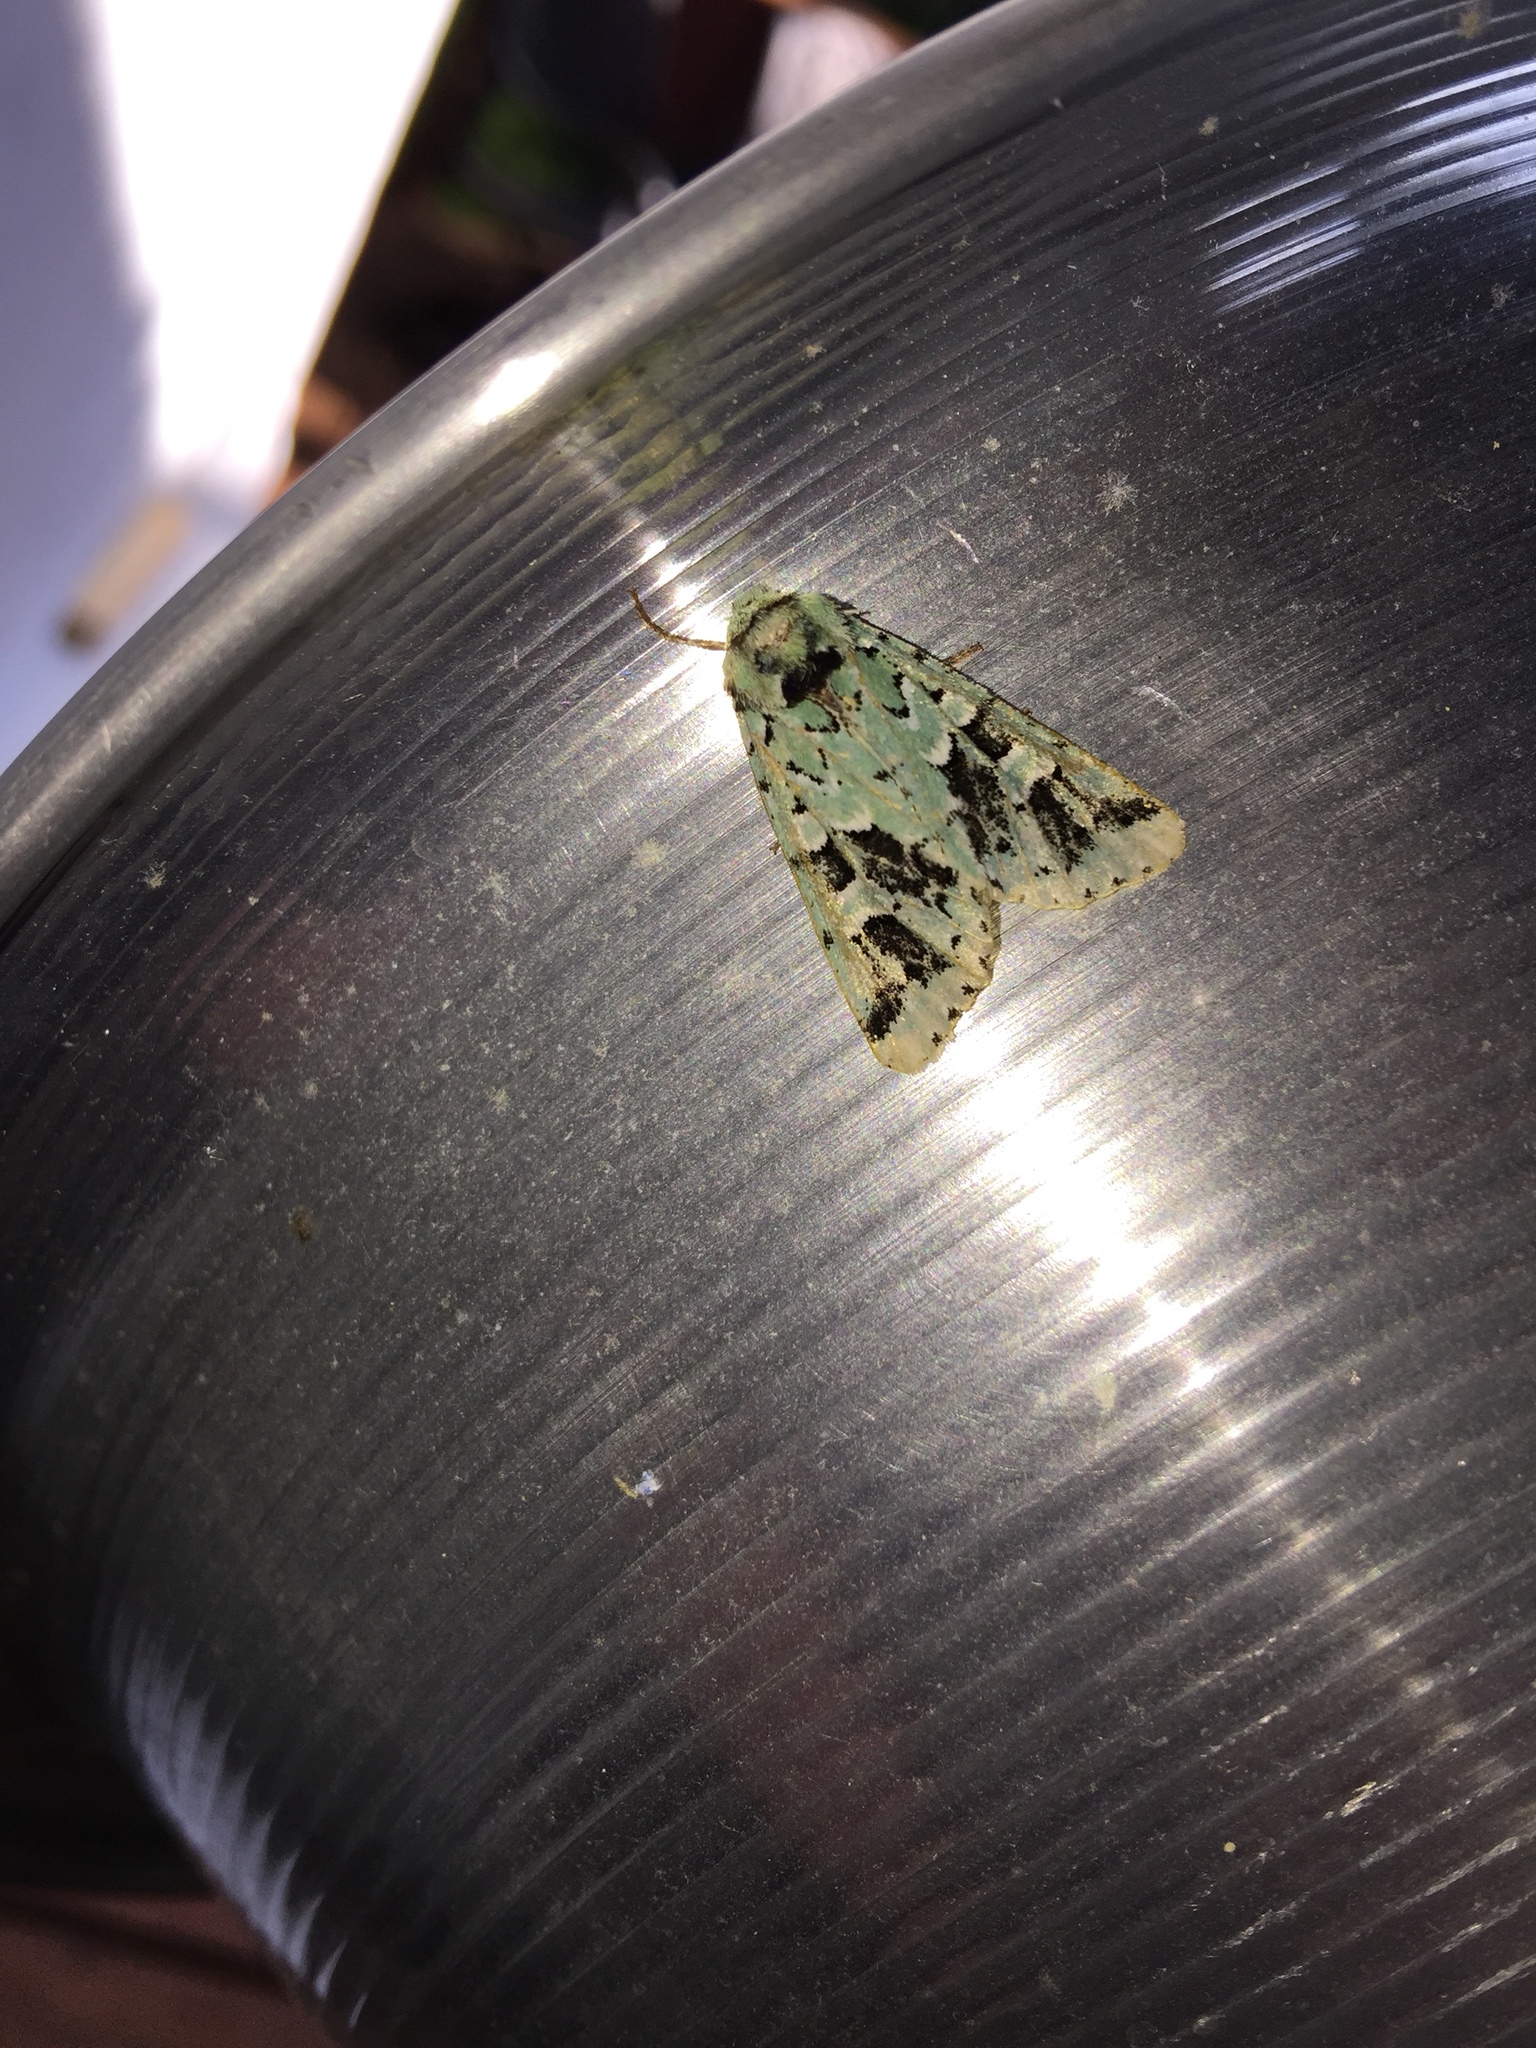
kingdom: Animalia
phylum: Arthropoda
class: Insecta
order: Lepidoptera
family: Noctuidae
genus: Feralia
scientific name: Feralia comstocki
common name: Comstock's sallow
